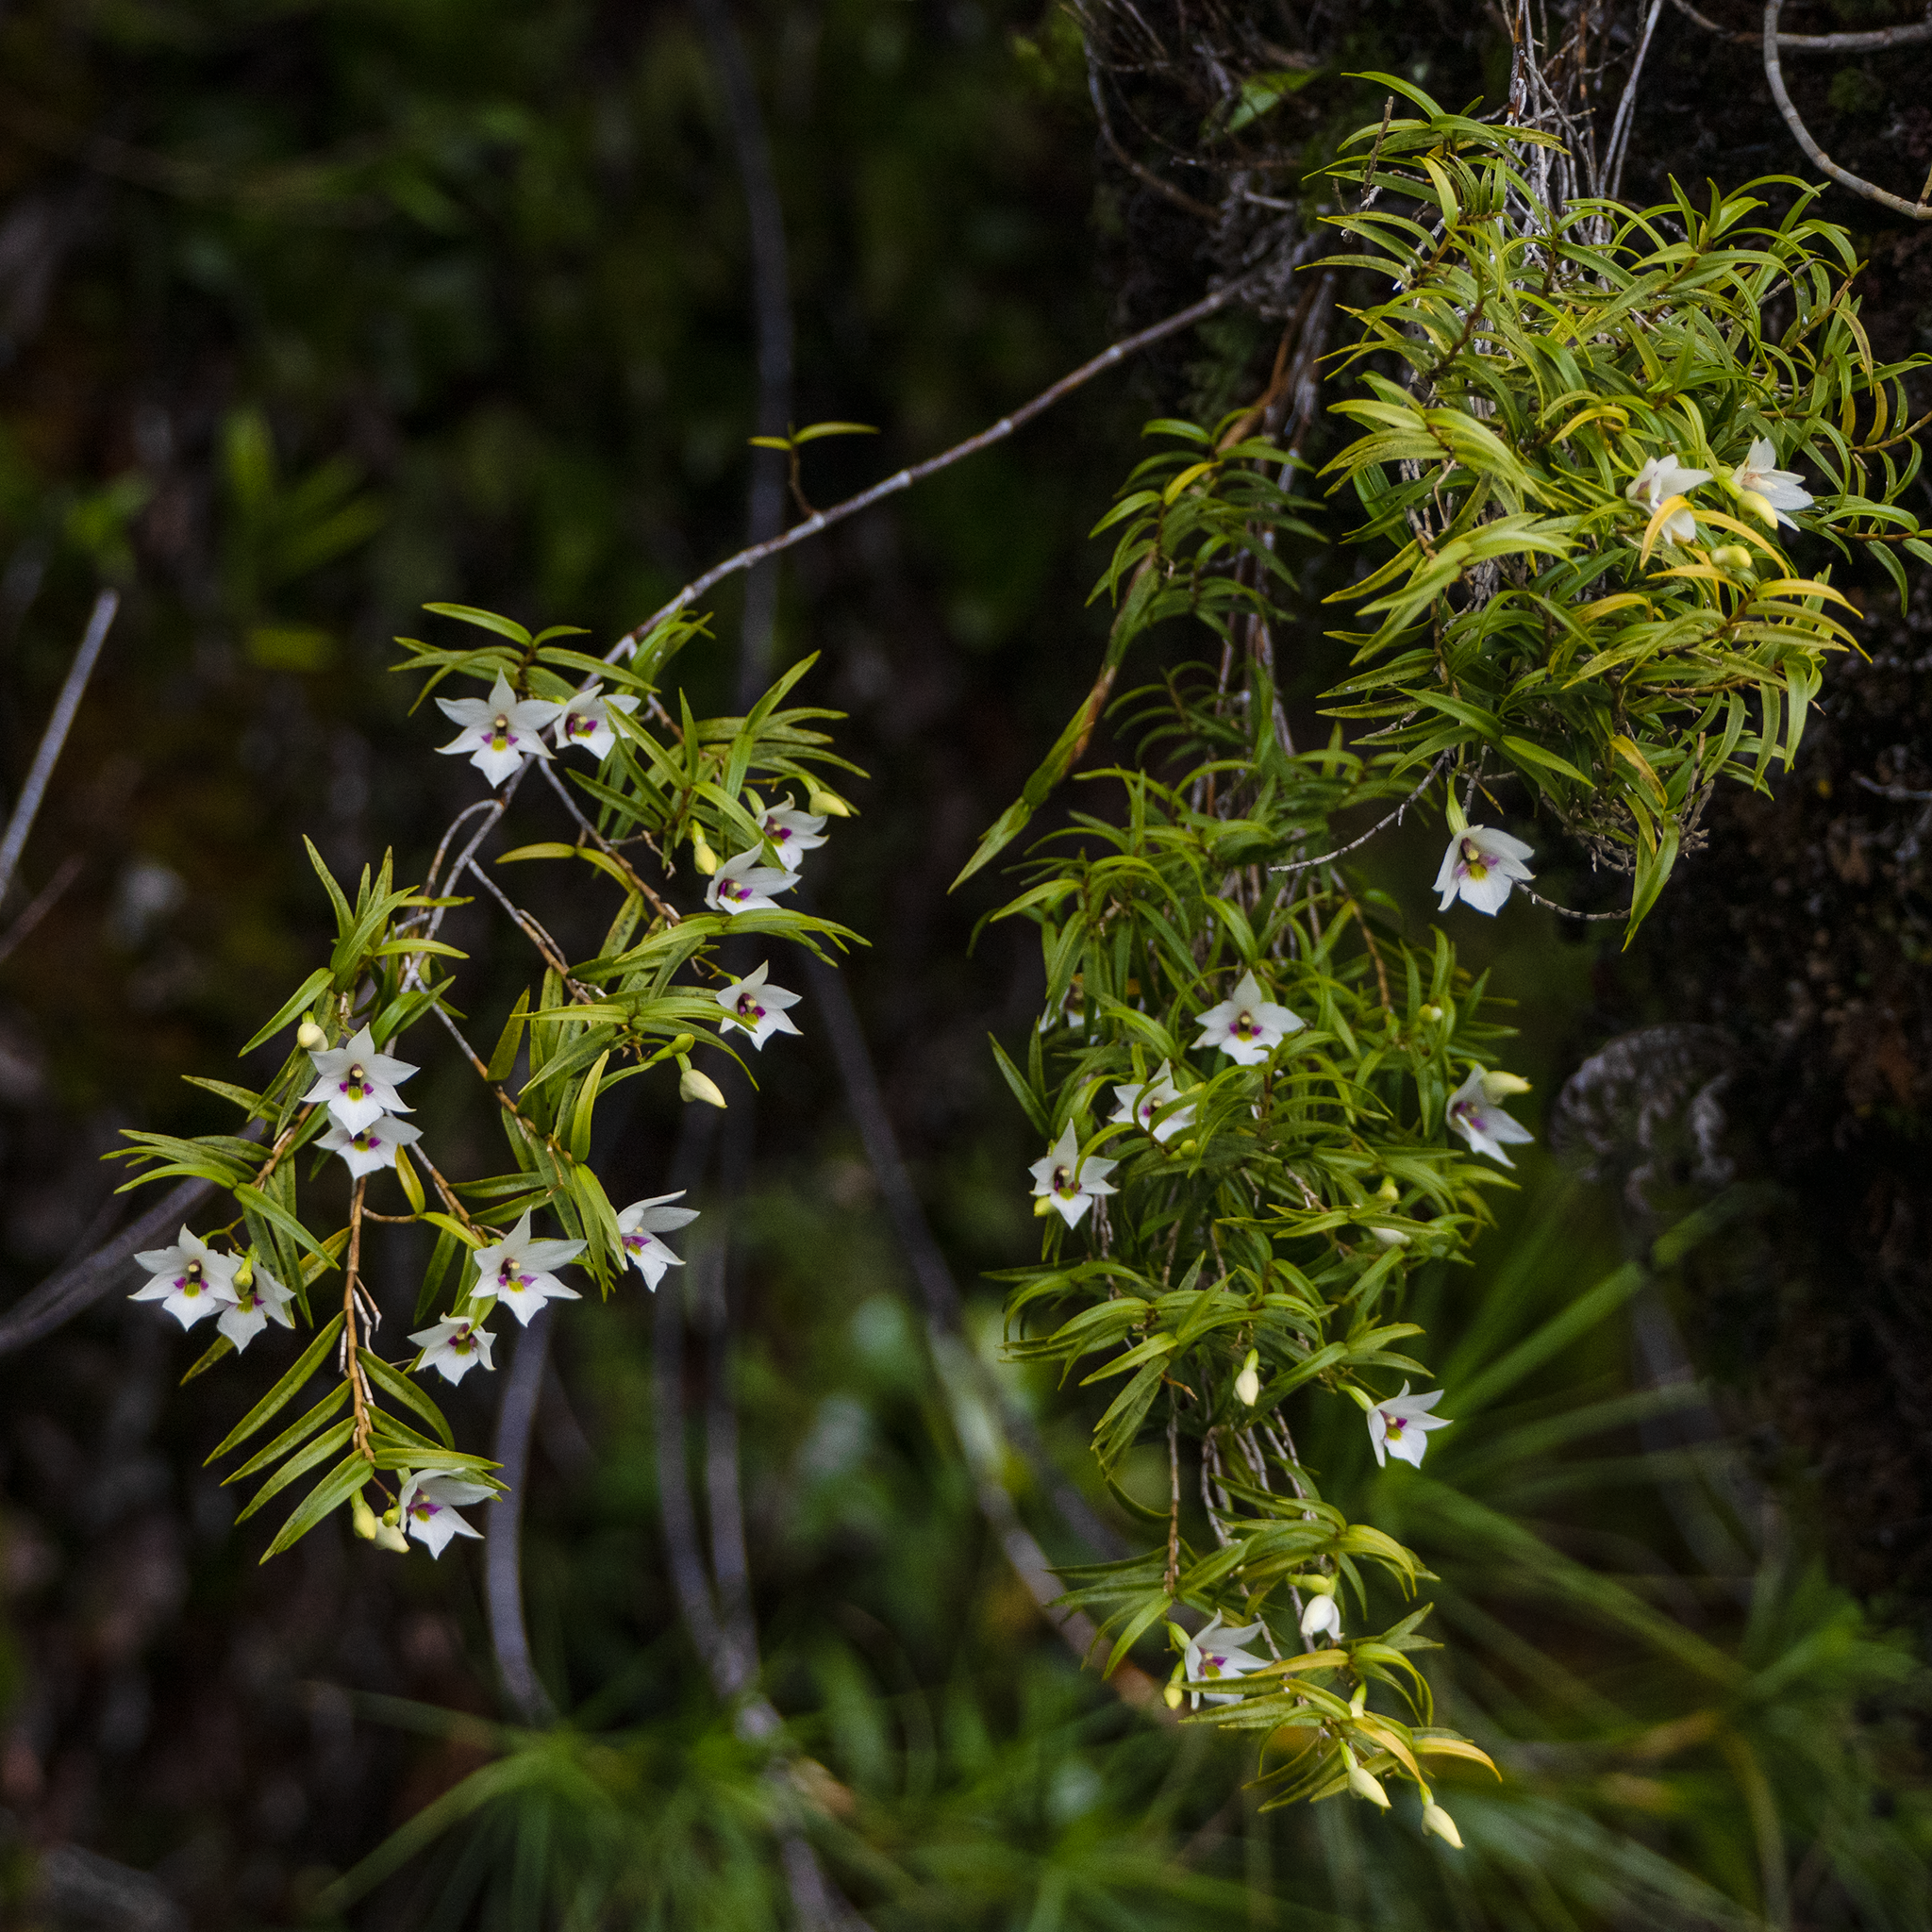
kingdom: Plantae
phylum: Tracheophyta
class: Liliopsida
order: Asparagales
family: Orchidaceae
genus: Dendrobium
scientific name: Dendrobium cunninghamii
